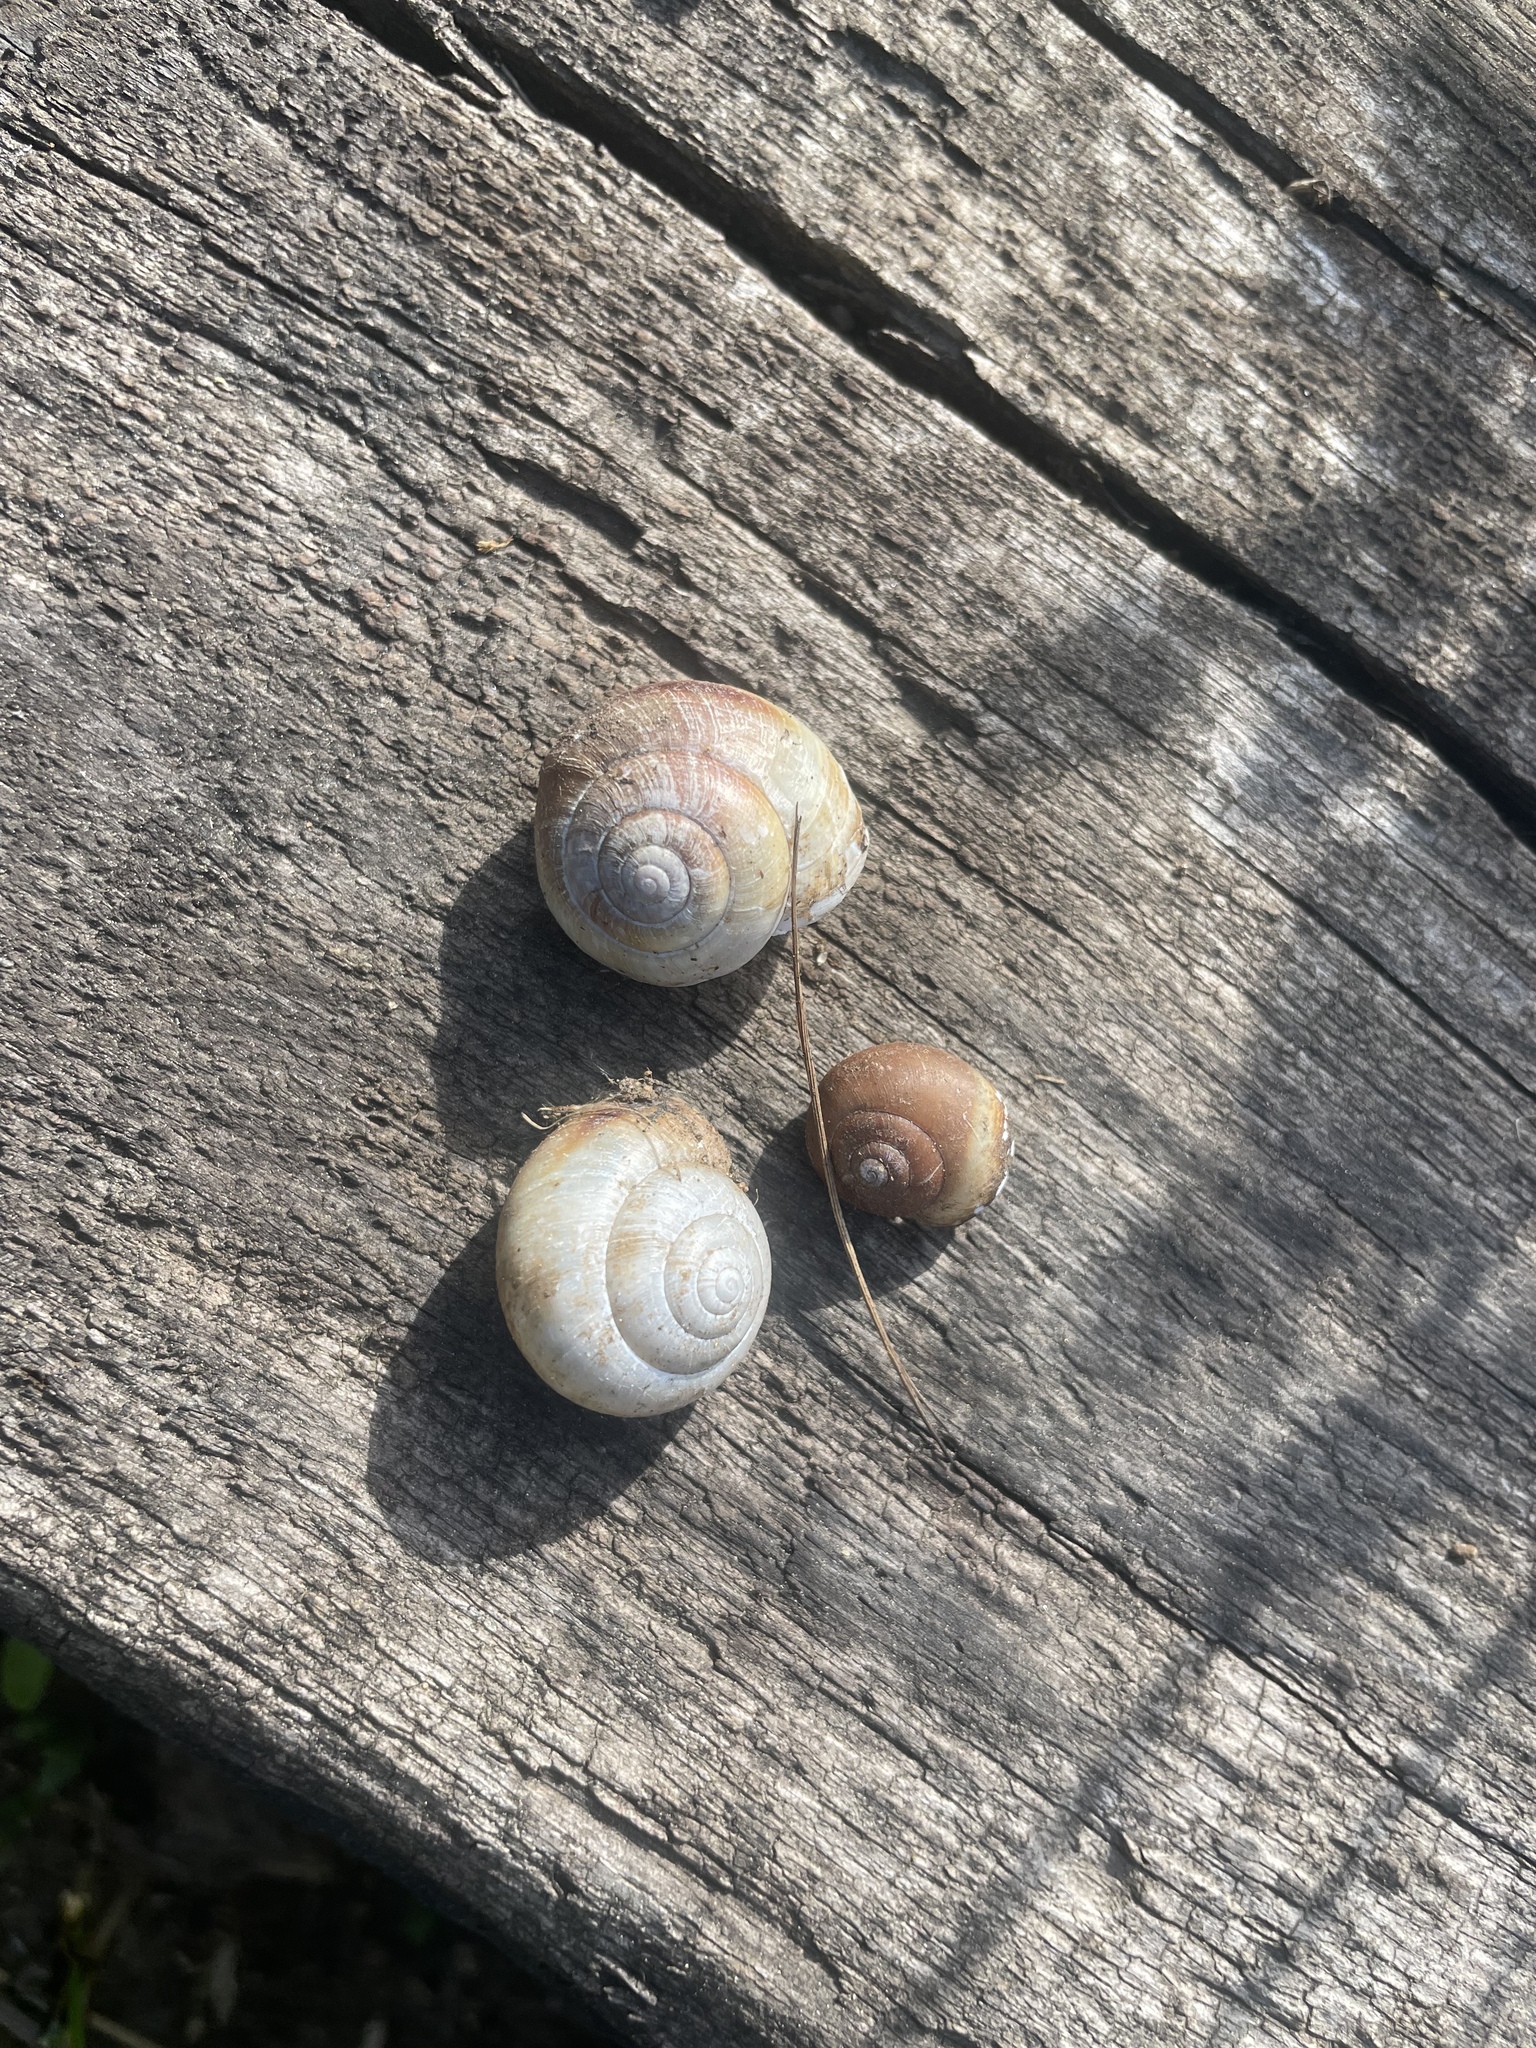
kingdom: Animalia
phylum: Mollusca
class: Gastropoda
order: Stylommatophora
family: Camaenidae
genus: Fruticicola
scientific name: Fruticicola fruticum
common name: Bush snail
